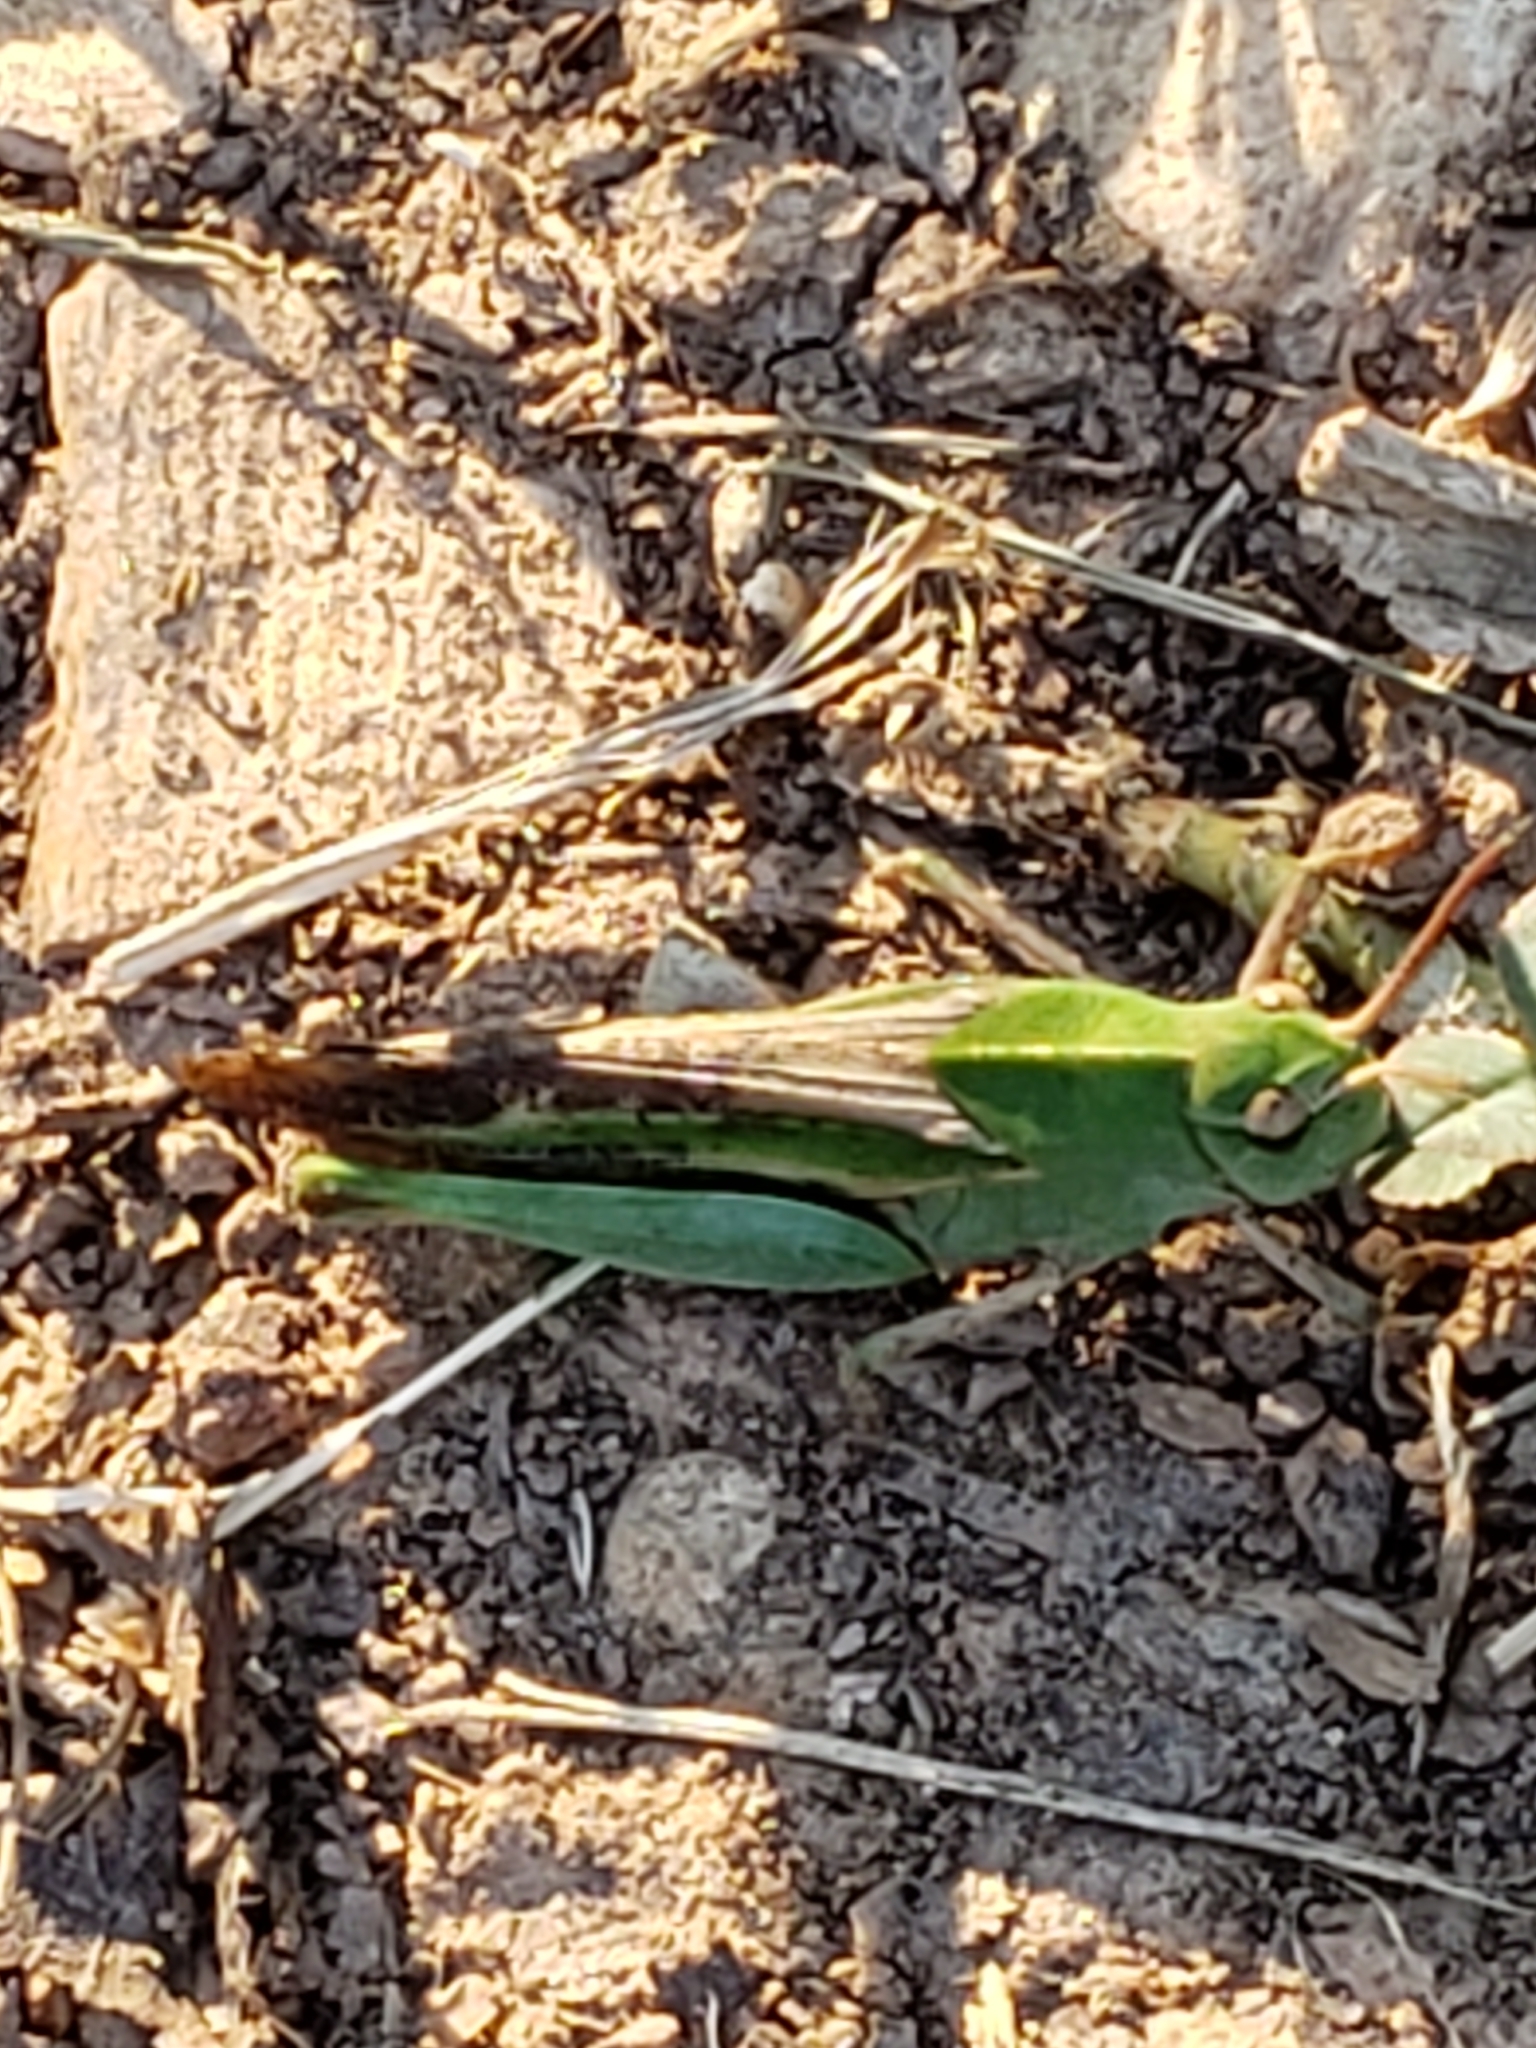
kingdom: Animalia
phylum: Arthropoda
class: Insecta
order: Orthoptera
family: Acrididae
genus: Chortophaga
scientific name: Chortophaga viridifasciata
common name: Green-striped grasshopper
